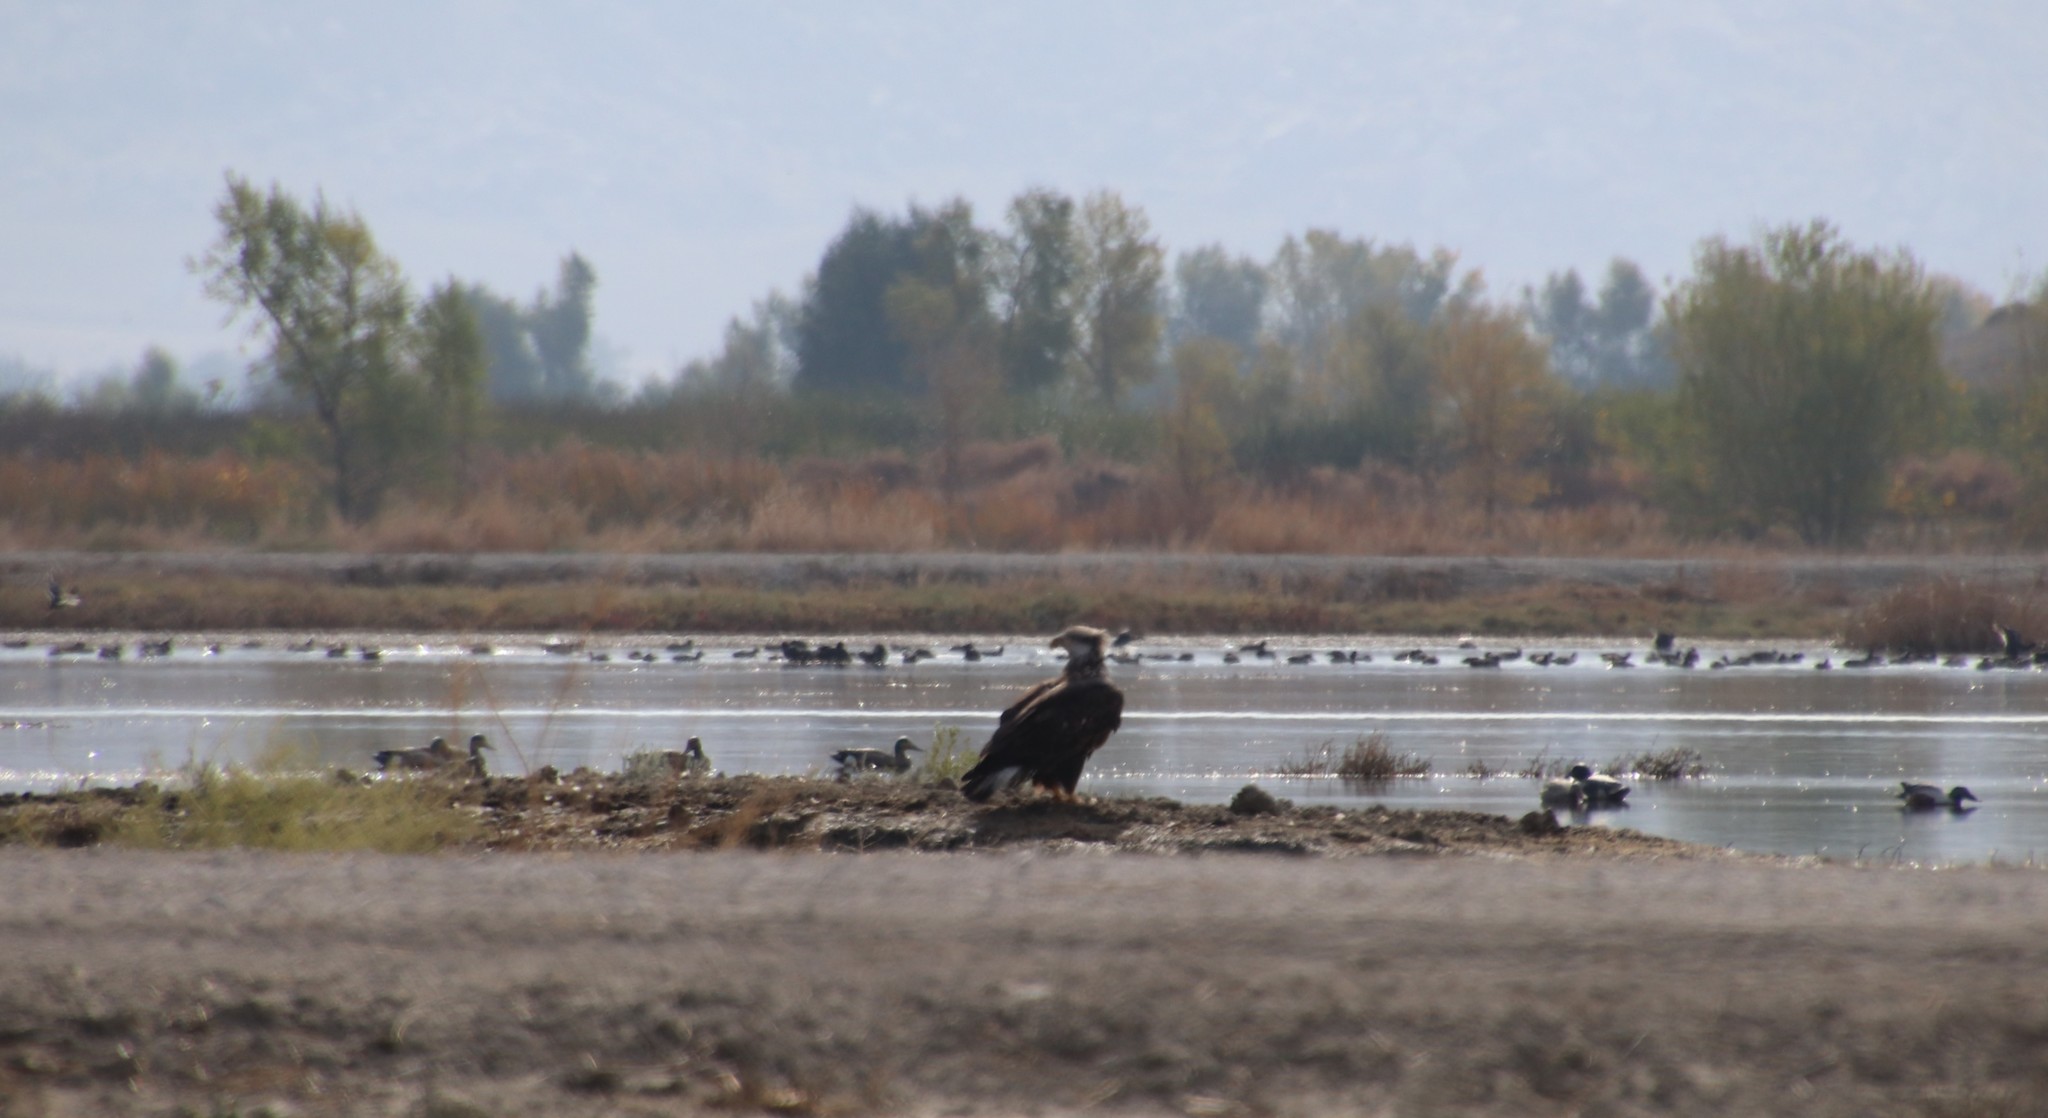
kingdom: Animalia
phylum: Chordata
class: Aves
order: Accipitriformes
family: Accipitridae
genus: Haliaeetus
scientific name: Haliaeetus leucocephalus
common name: Bald eagle
